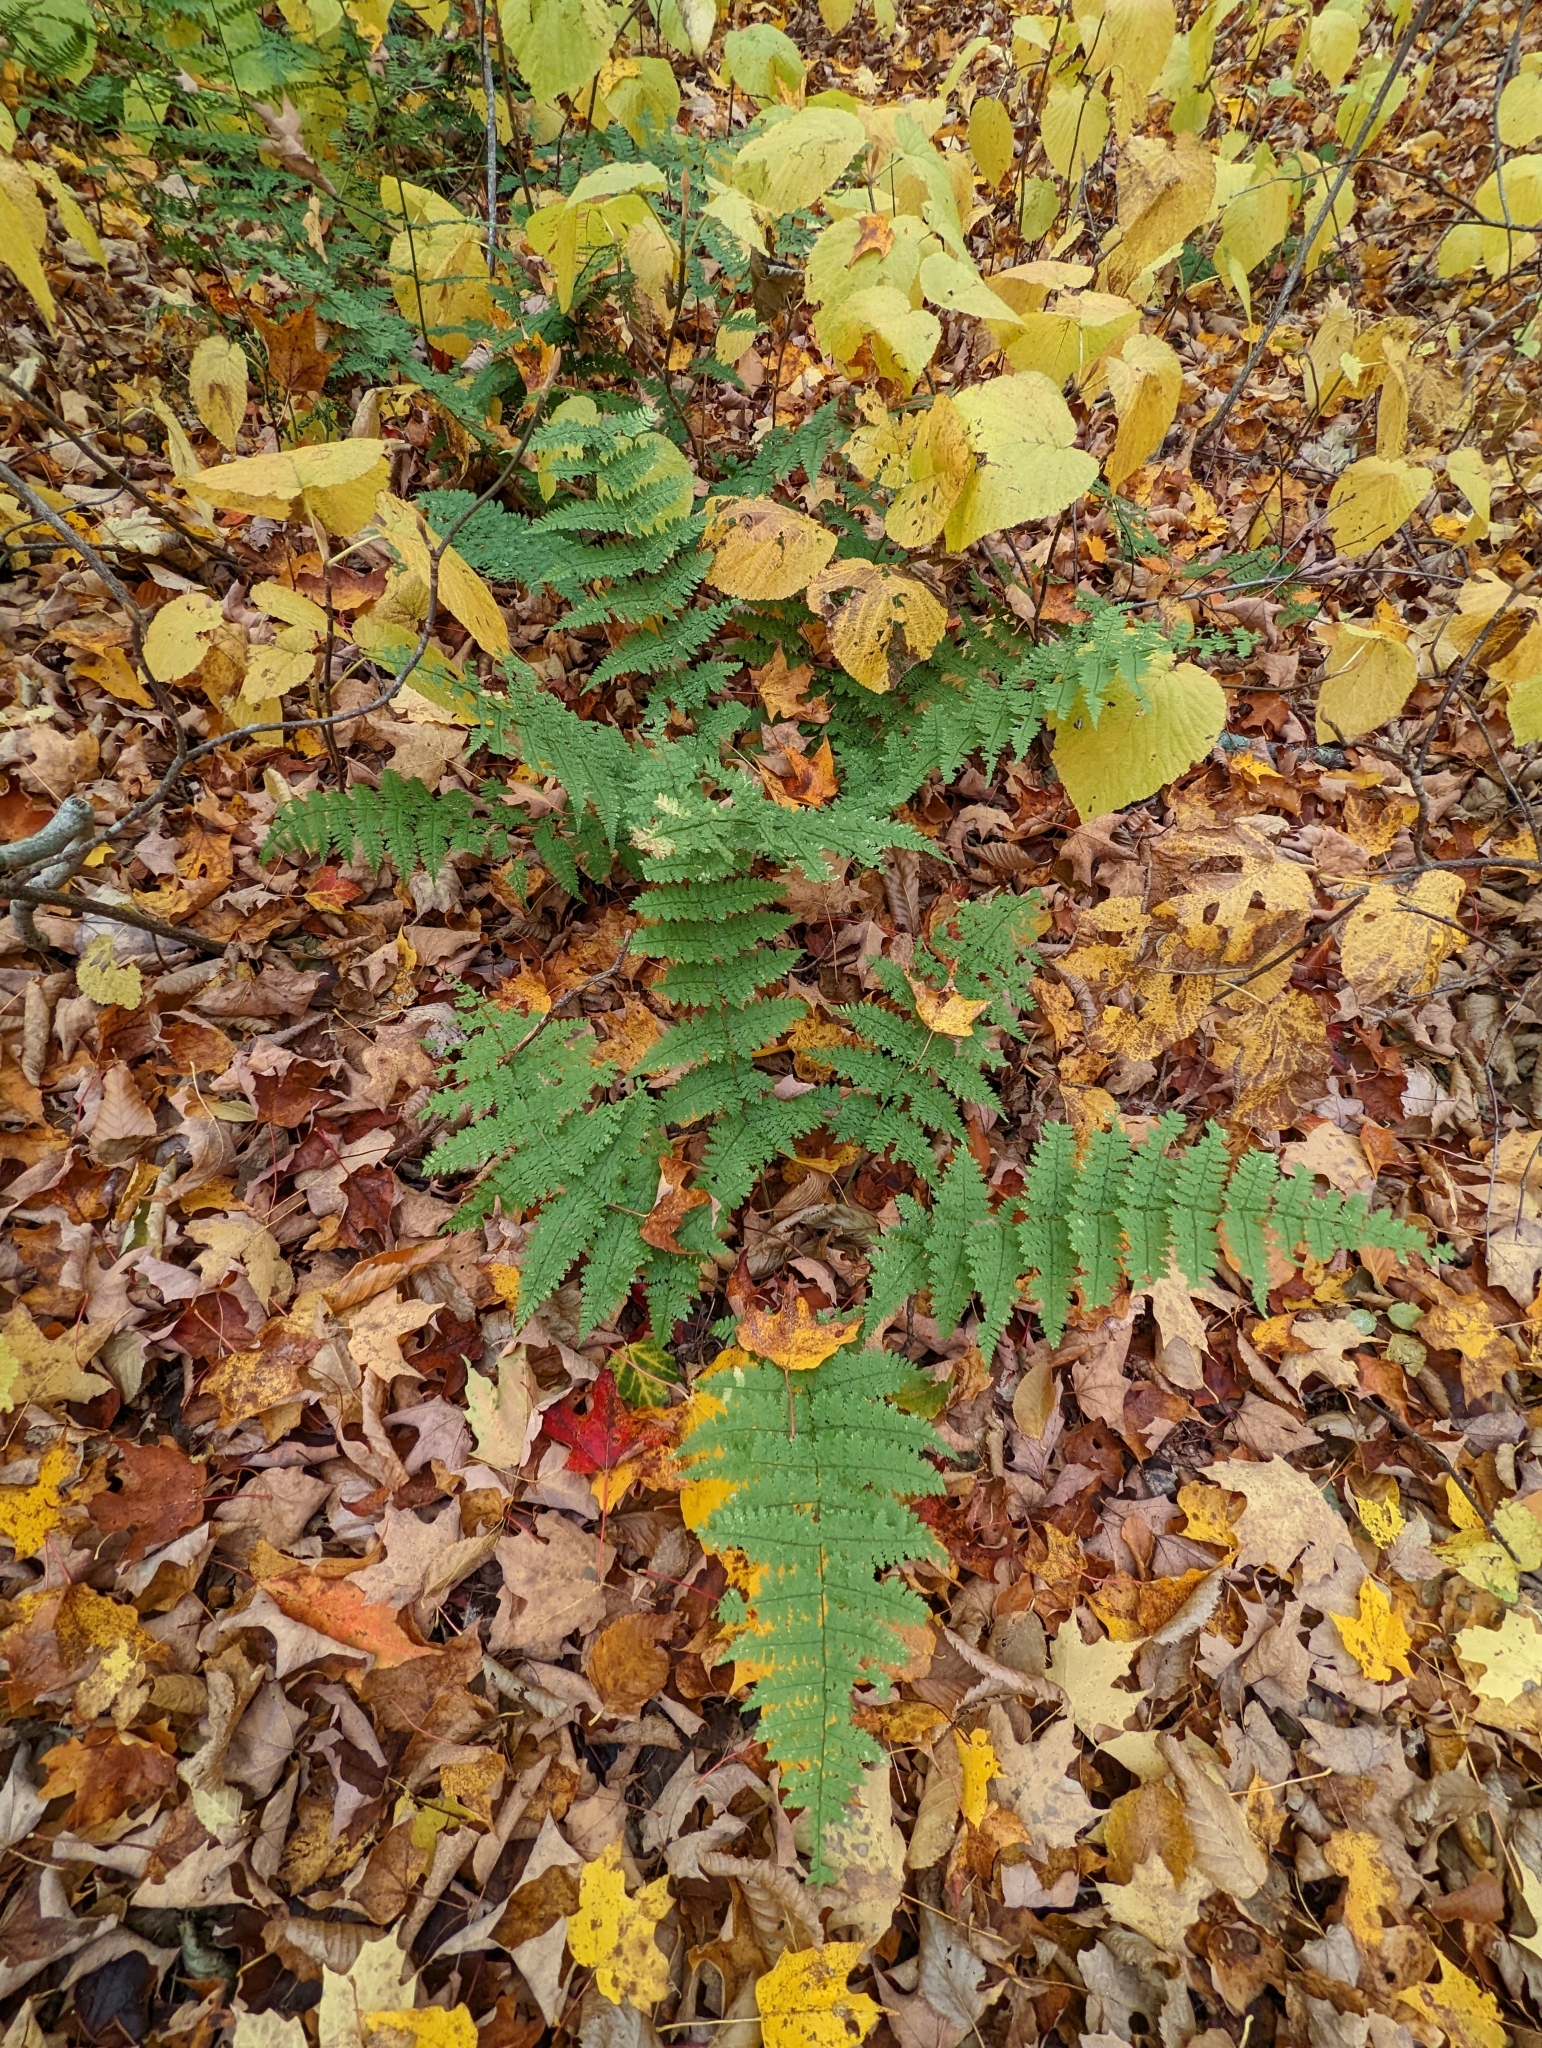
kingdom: Plantae
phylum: Tracheophyta
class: Polypodiopsida
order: Polypodiales
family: Dryopteridaceae
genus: Dryopteris
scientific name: Dryopteris intermedia
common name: Evergreen wood fern
